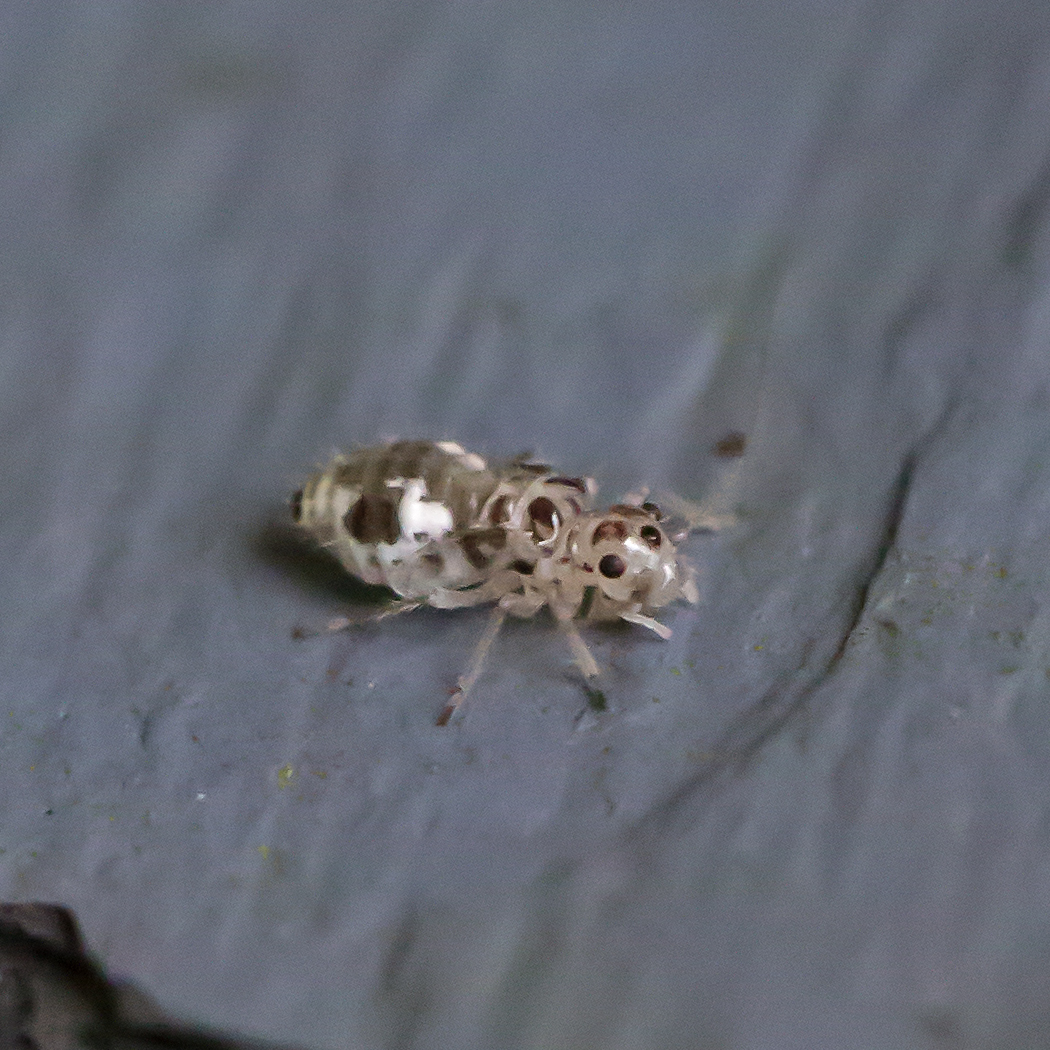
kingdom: Animalia
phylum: Arthropoda
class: Insecta
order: Psocodea
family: Dasydemellidae
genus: Teliapsocus
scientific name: Teliapsocus conterminus
